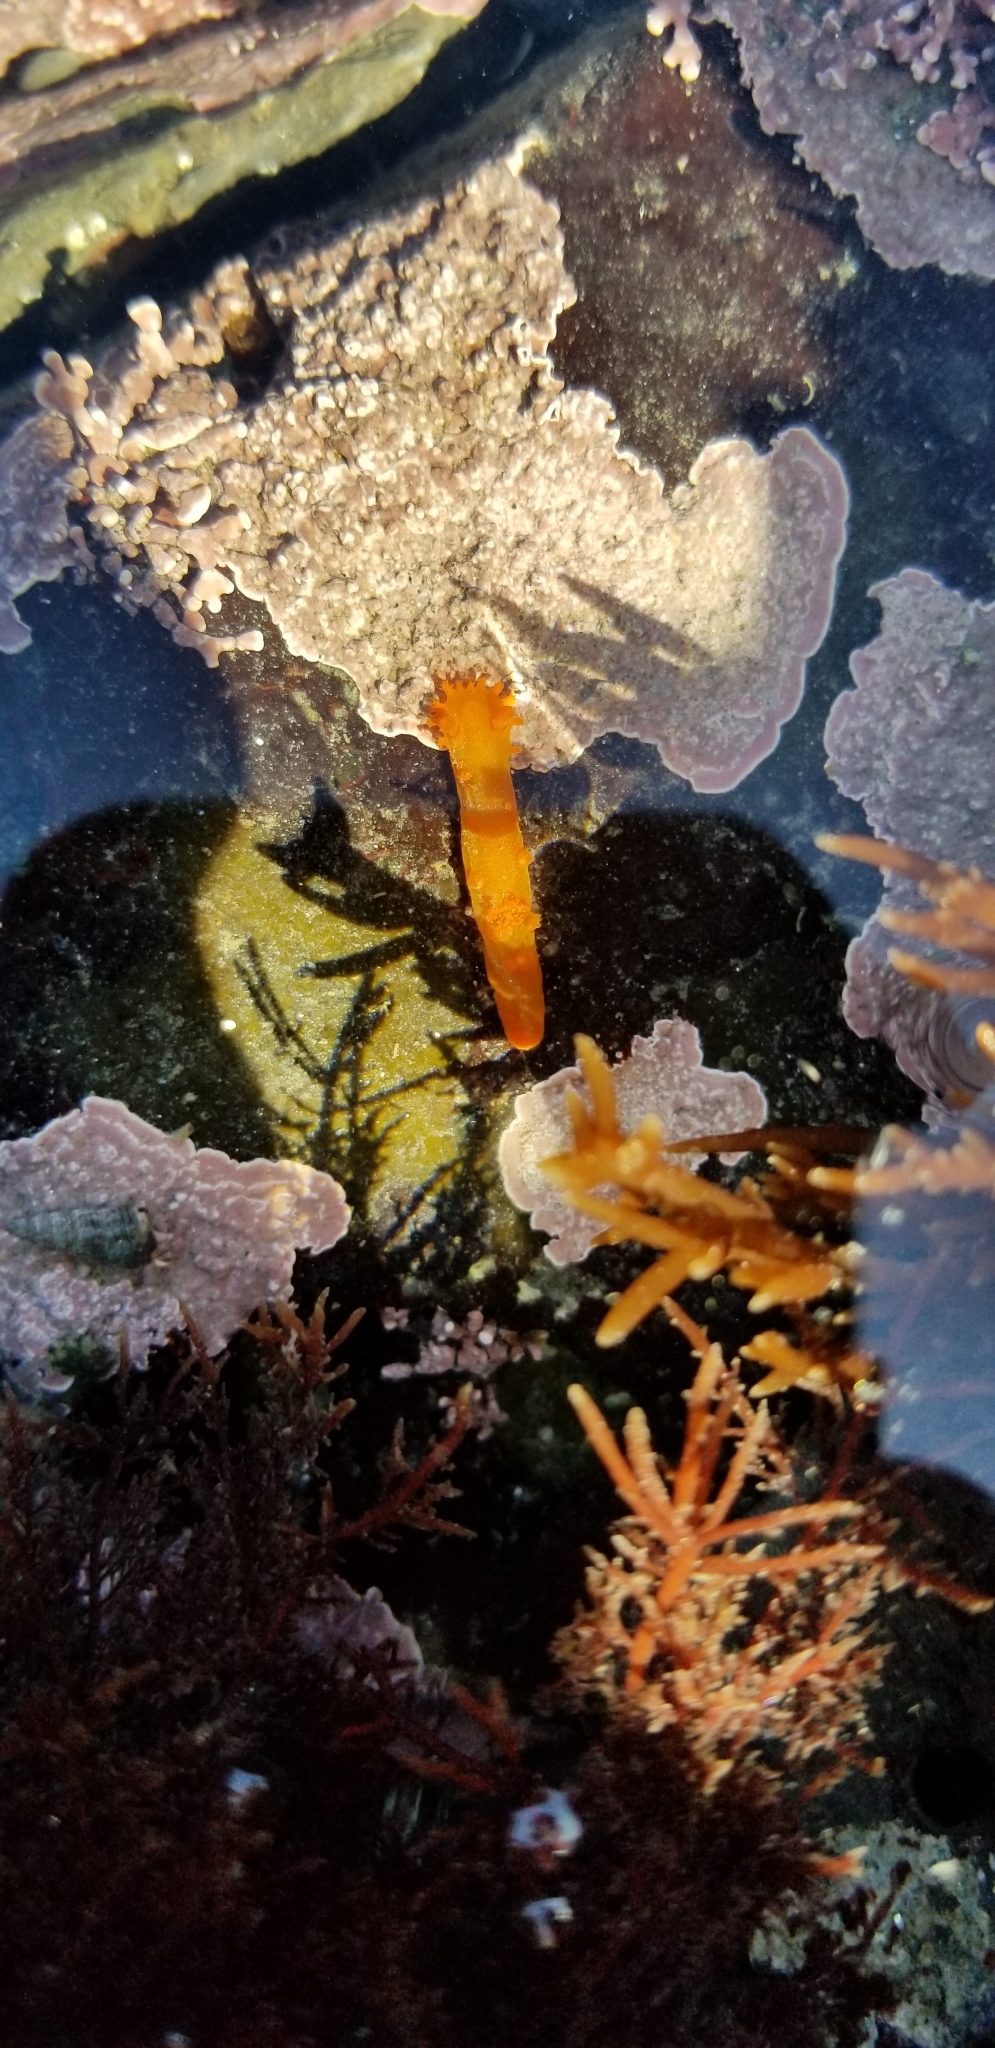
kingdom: Animalia
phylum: Mollusca
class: Gastropoda
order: Nudibranchia
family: Polyceridae
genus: Triopha
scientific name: Triopha maculata
